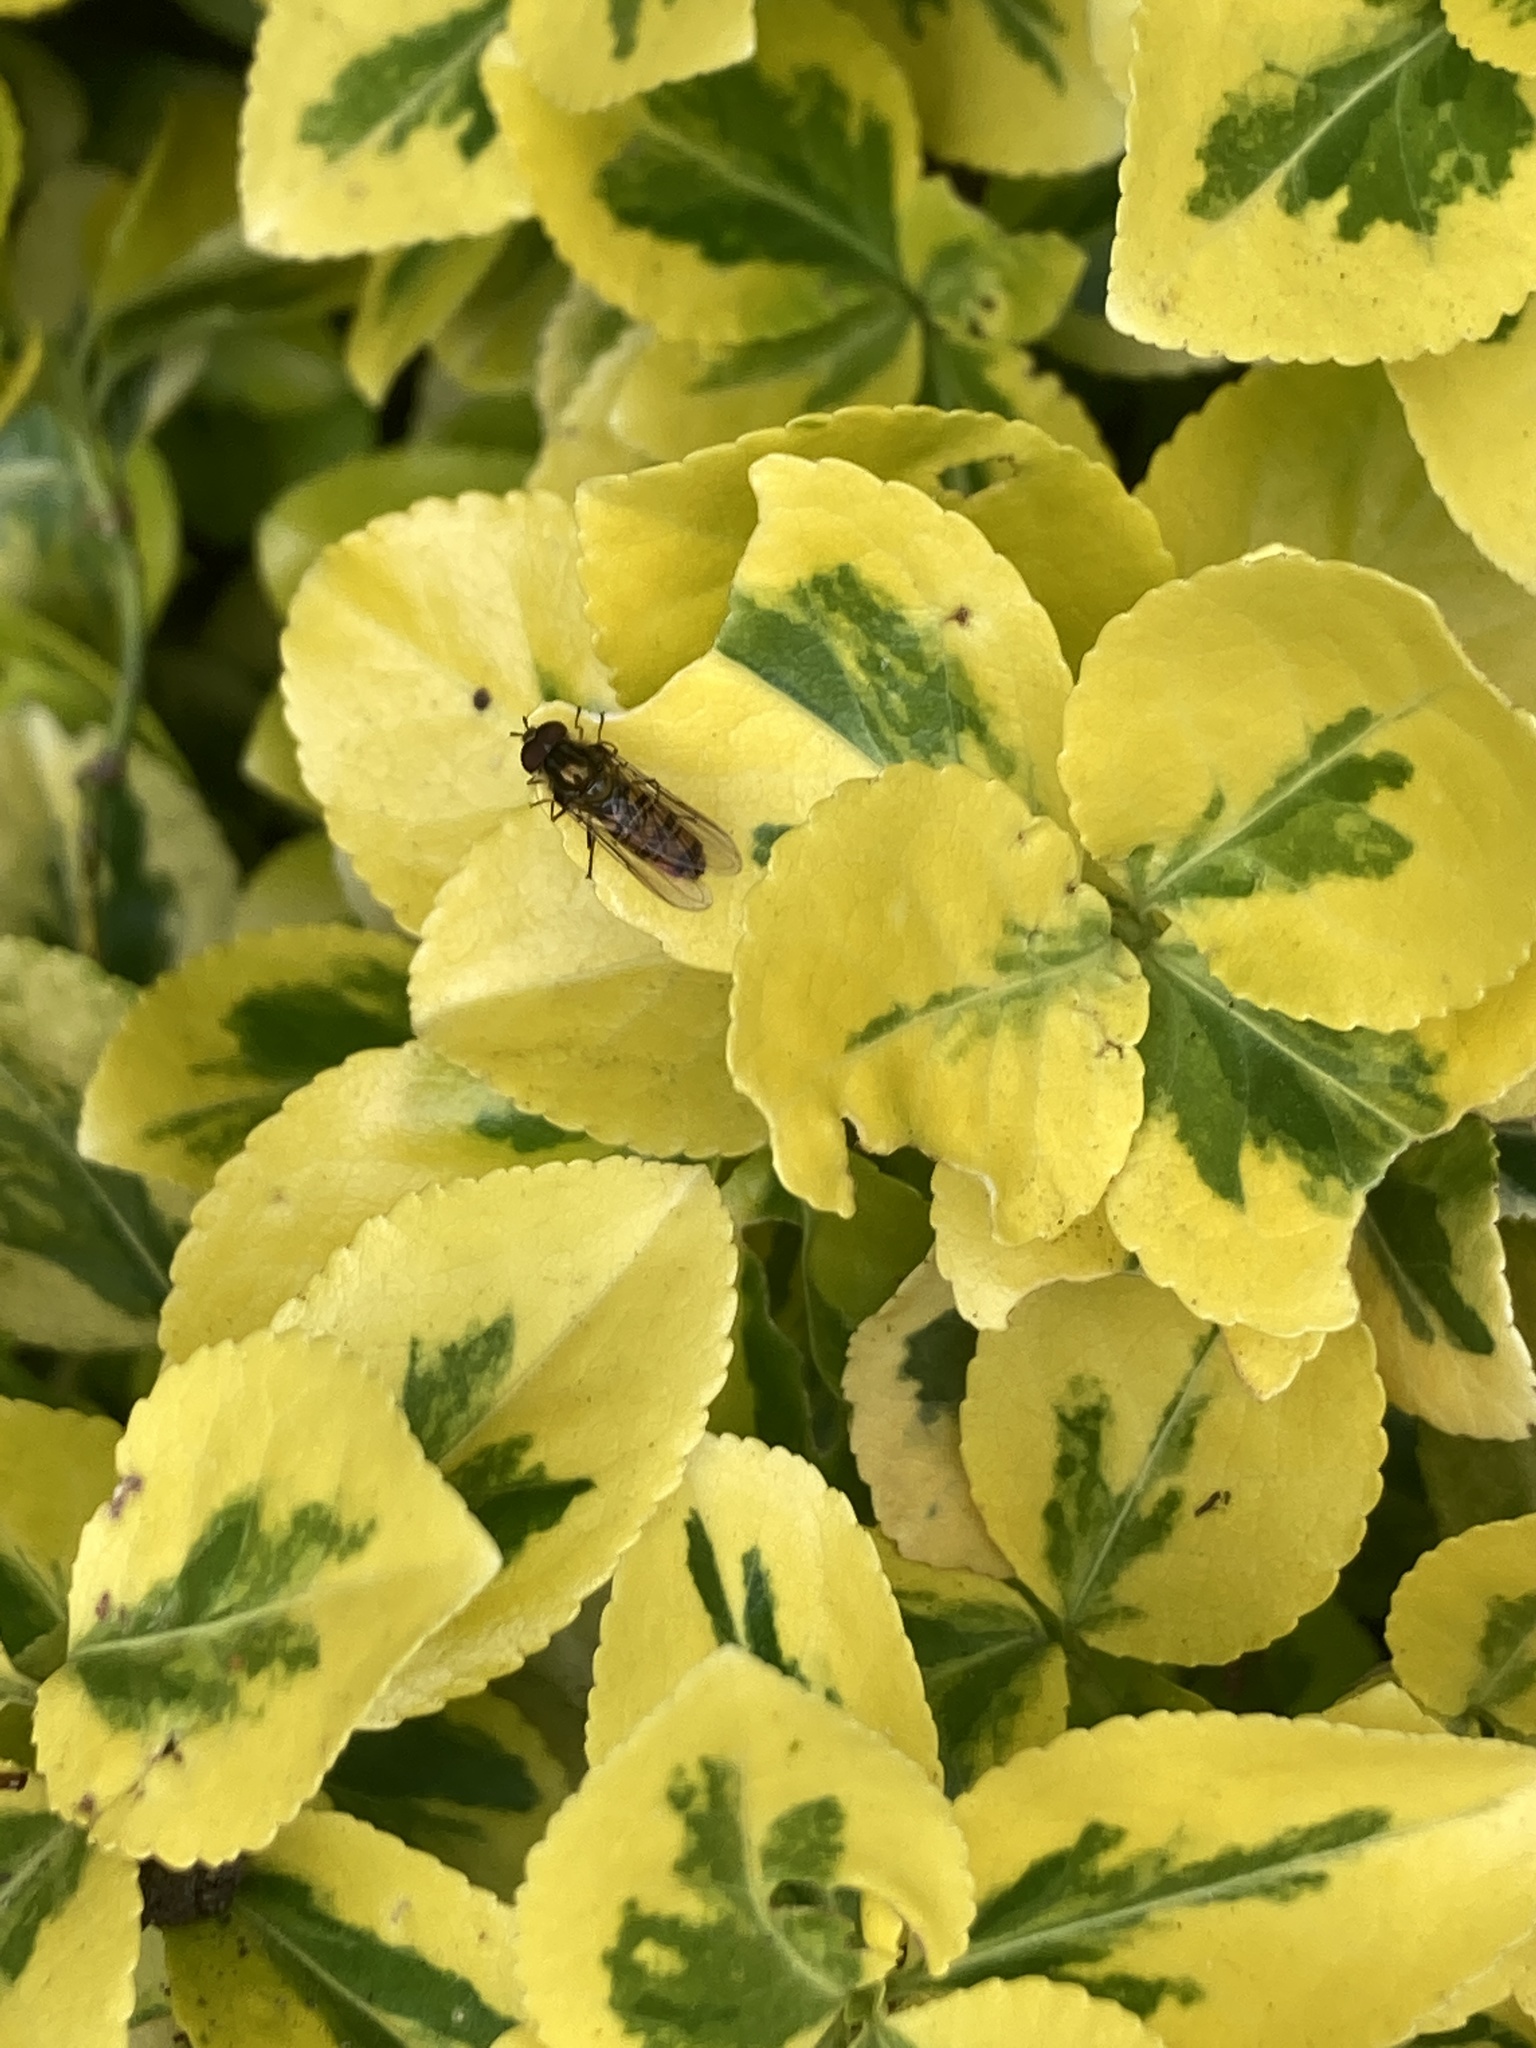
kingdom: Animalia
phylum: Arthropoda
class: Insecta
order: Diptera
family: Syrphidae
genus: Episyrphus
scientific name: Episyrphus balteatus
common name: Marmalade hoverfly
